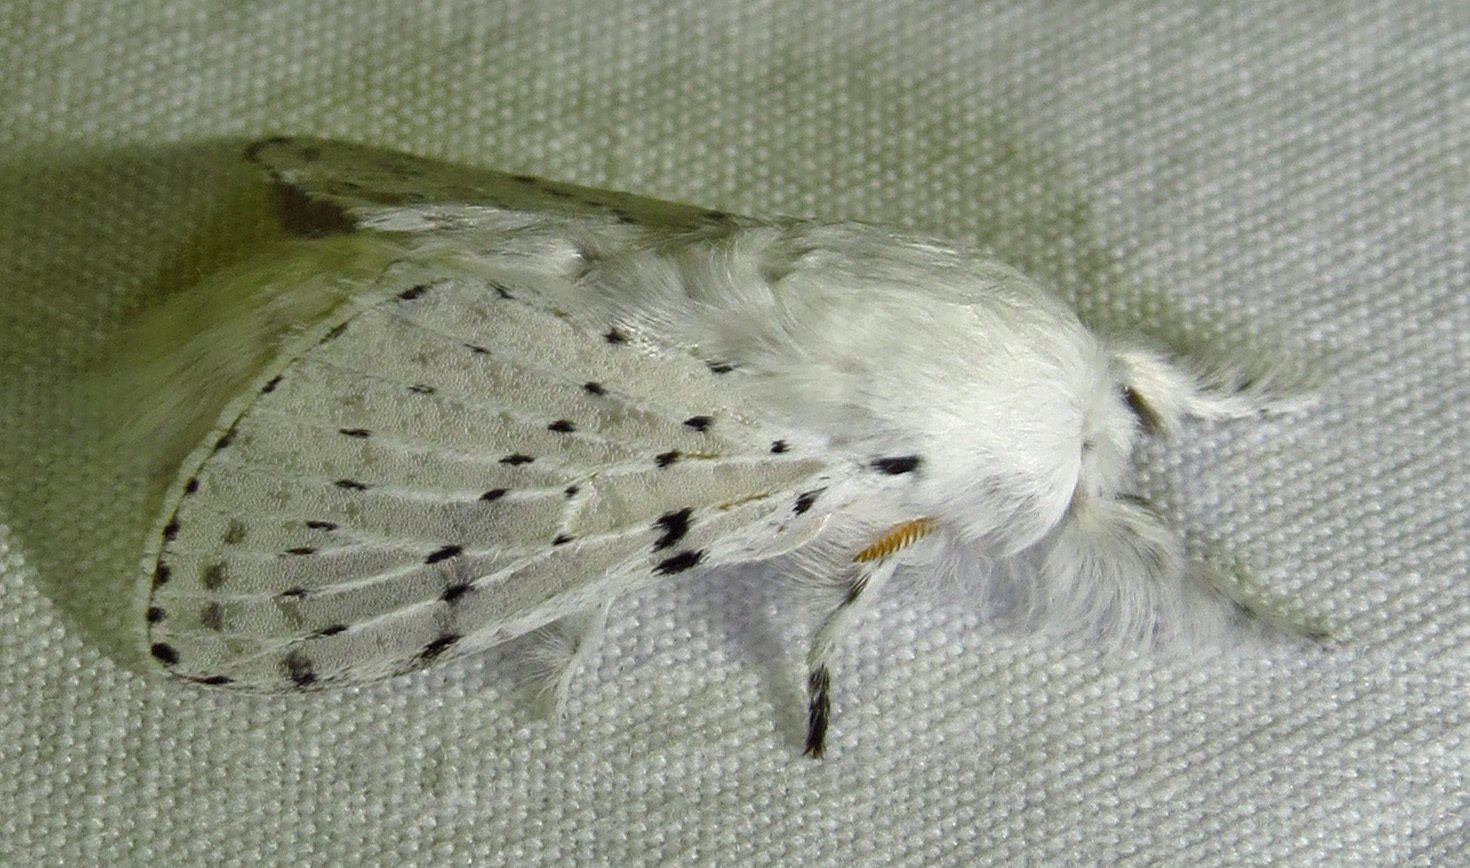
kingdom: Animalia
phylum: Arthropoda
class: Insecta
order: Lepidoptera
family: Lasiocampidae
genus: Artace
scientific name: Artace cribrarius
